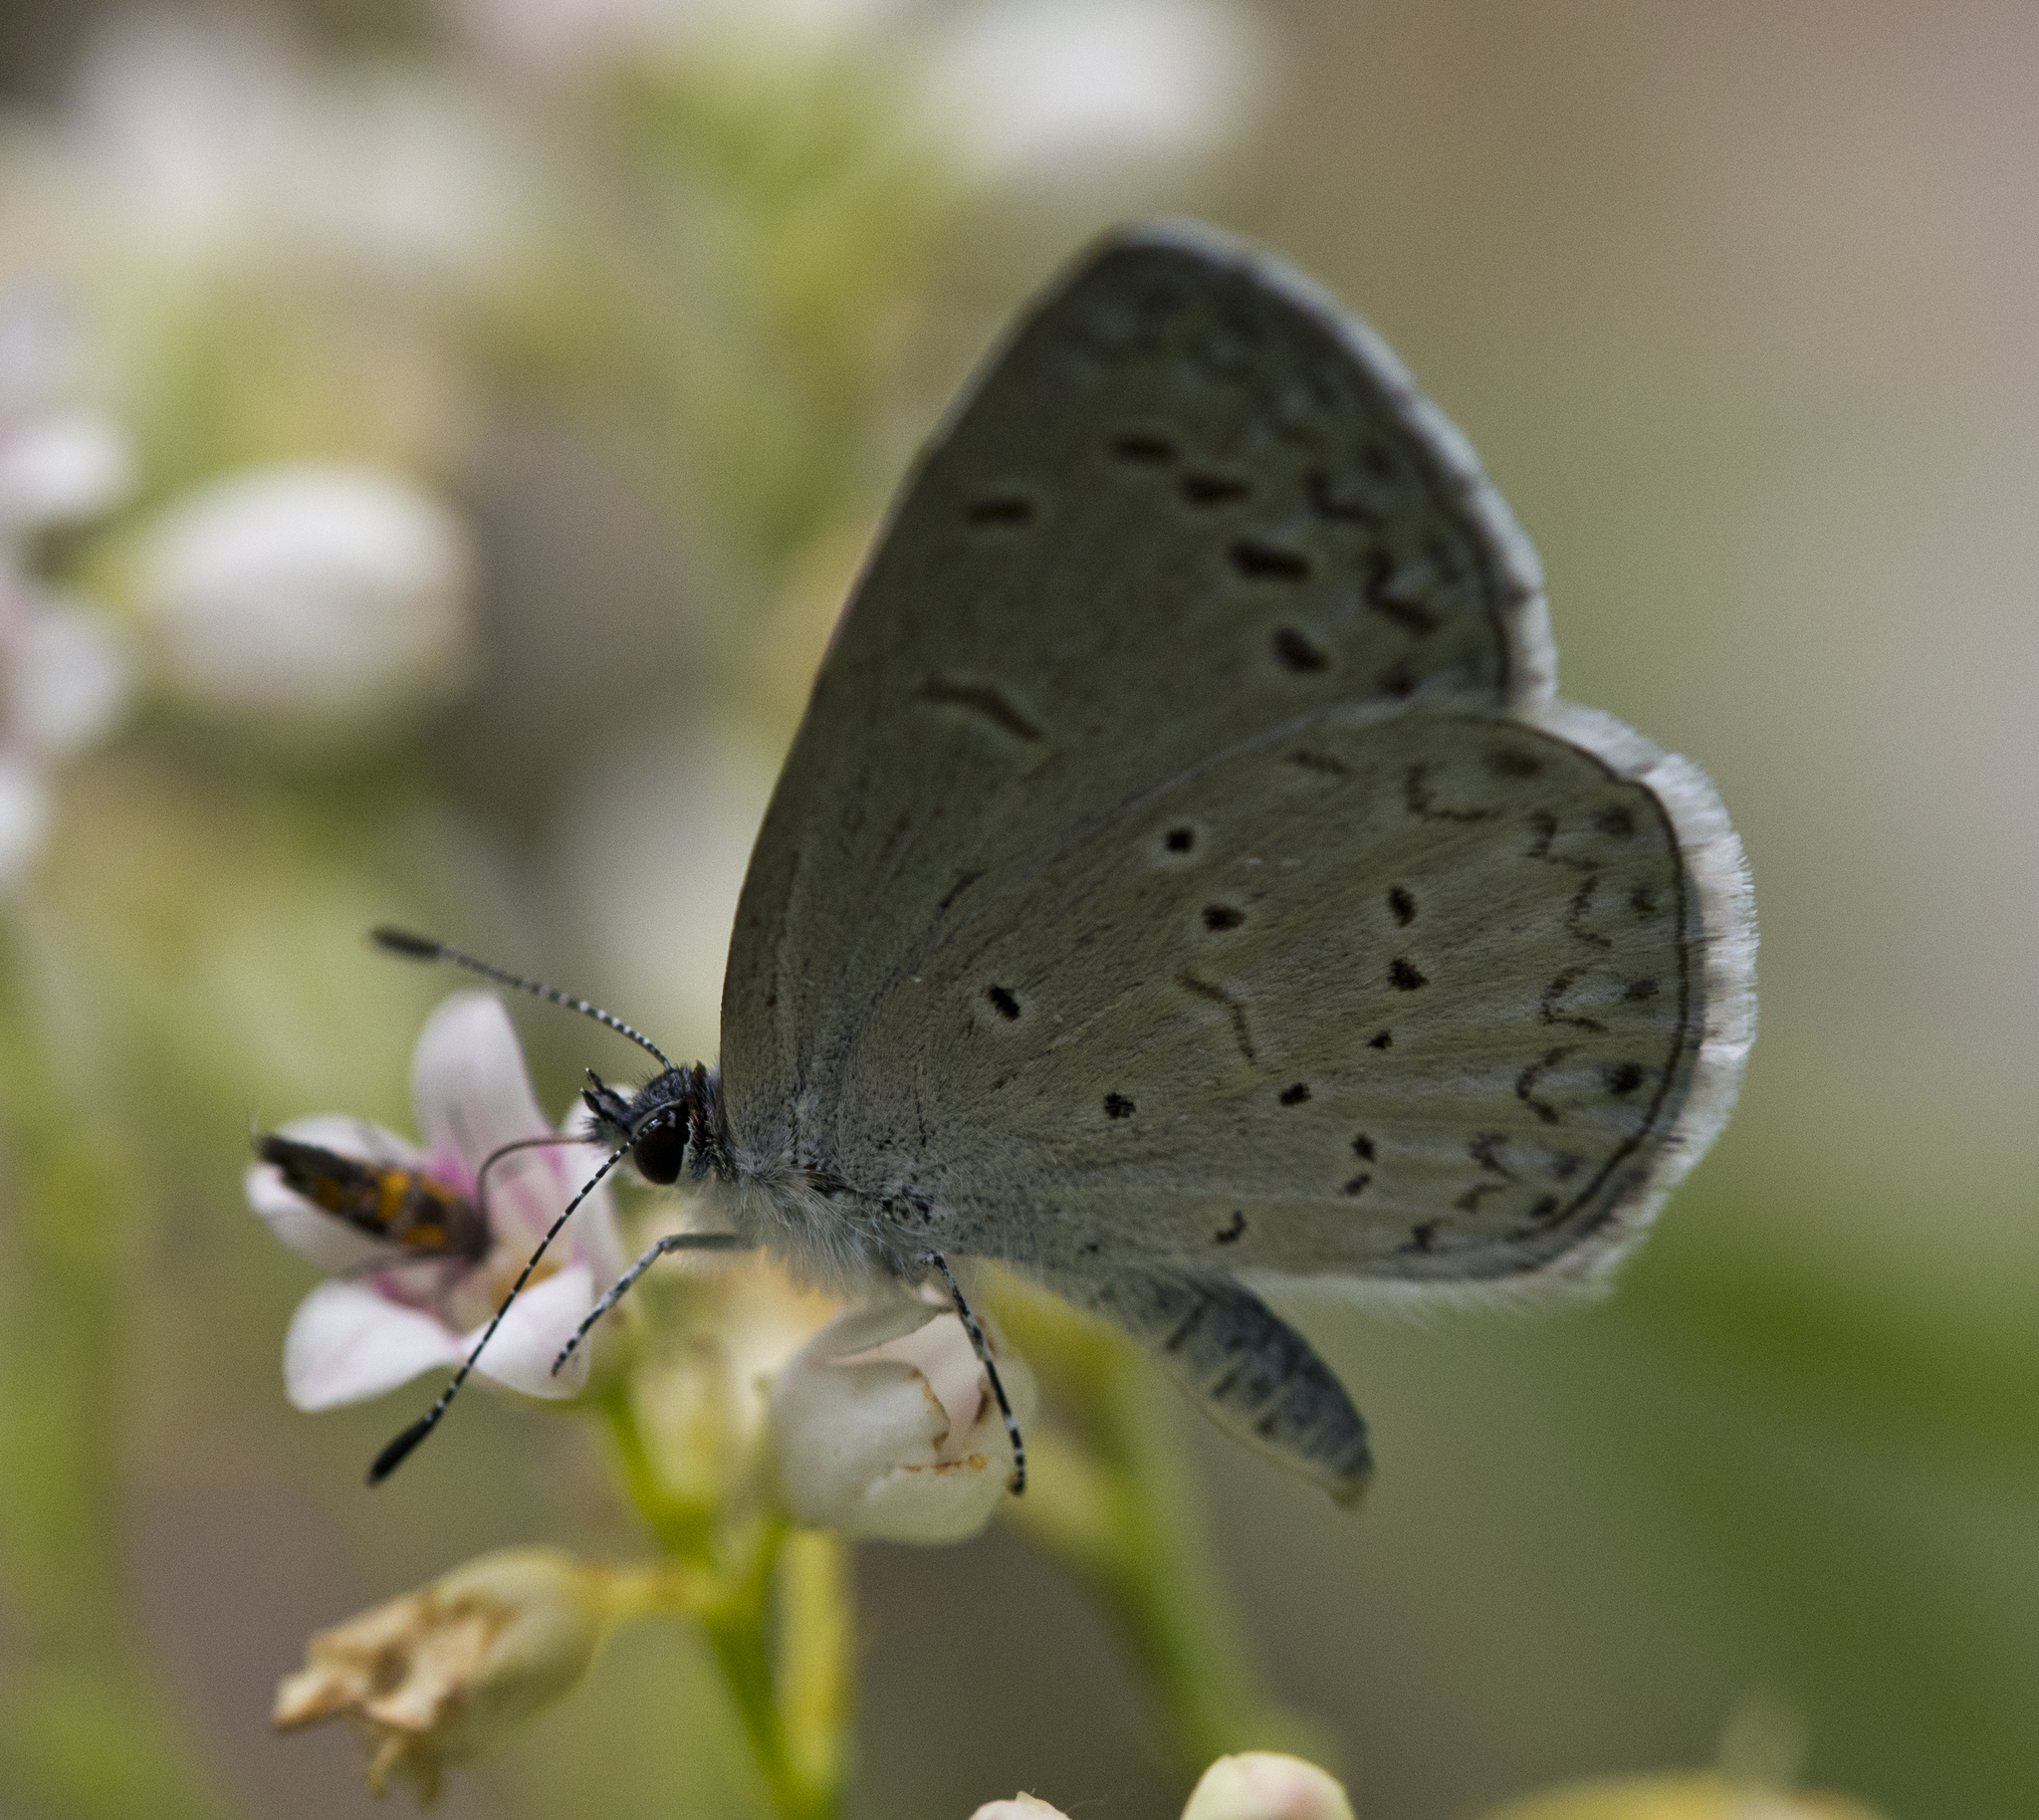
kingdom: Animalia
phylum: Arthropoda
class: Insecta
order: Lepidoptera
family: Lycaenidae
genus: Celastrina
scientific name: Celastrina ladon
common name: Spring azure
